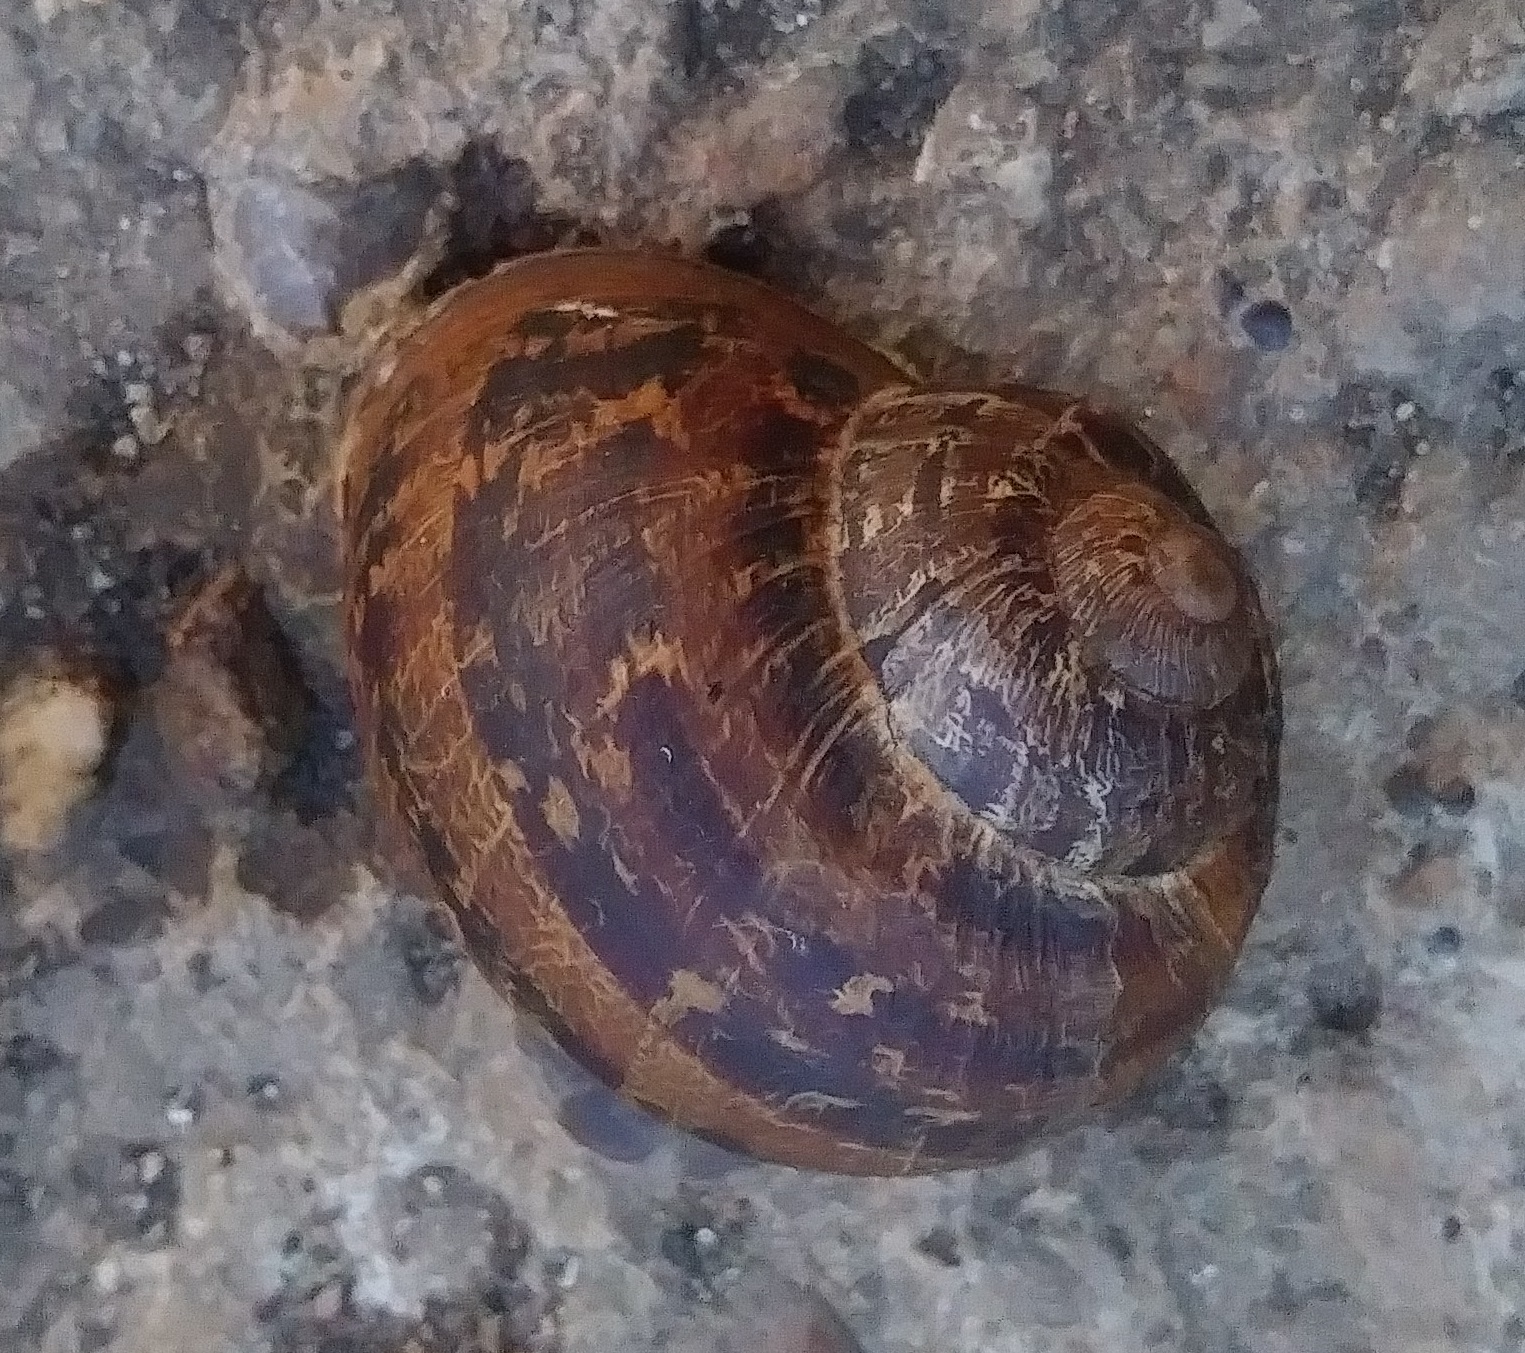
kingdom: Animalia
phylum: Mollusca
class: Gastropoda
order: Stylommatophora
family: Helicidae
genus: Cornu
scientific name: Cornu aspersum
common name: Brown garden snail
